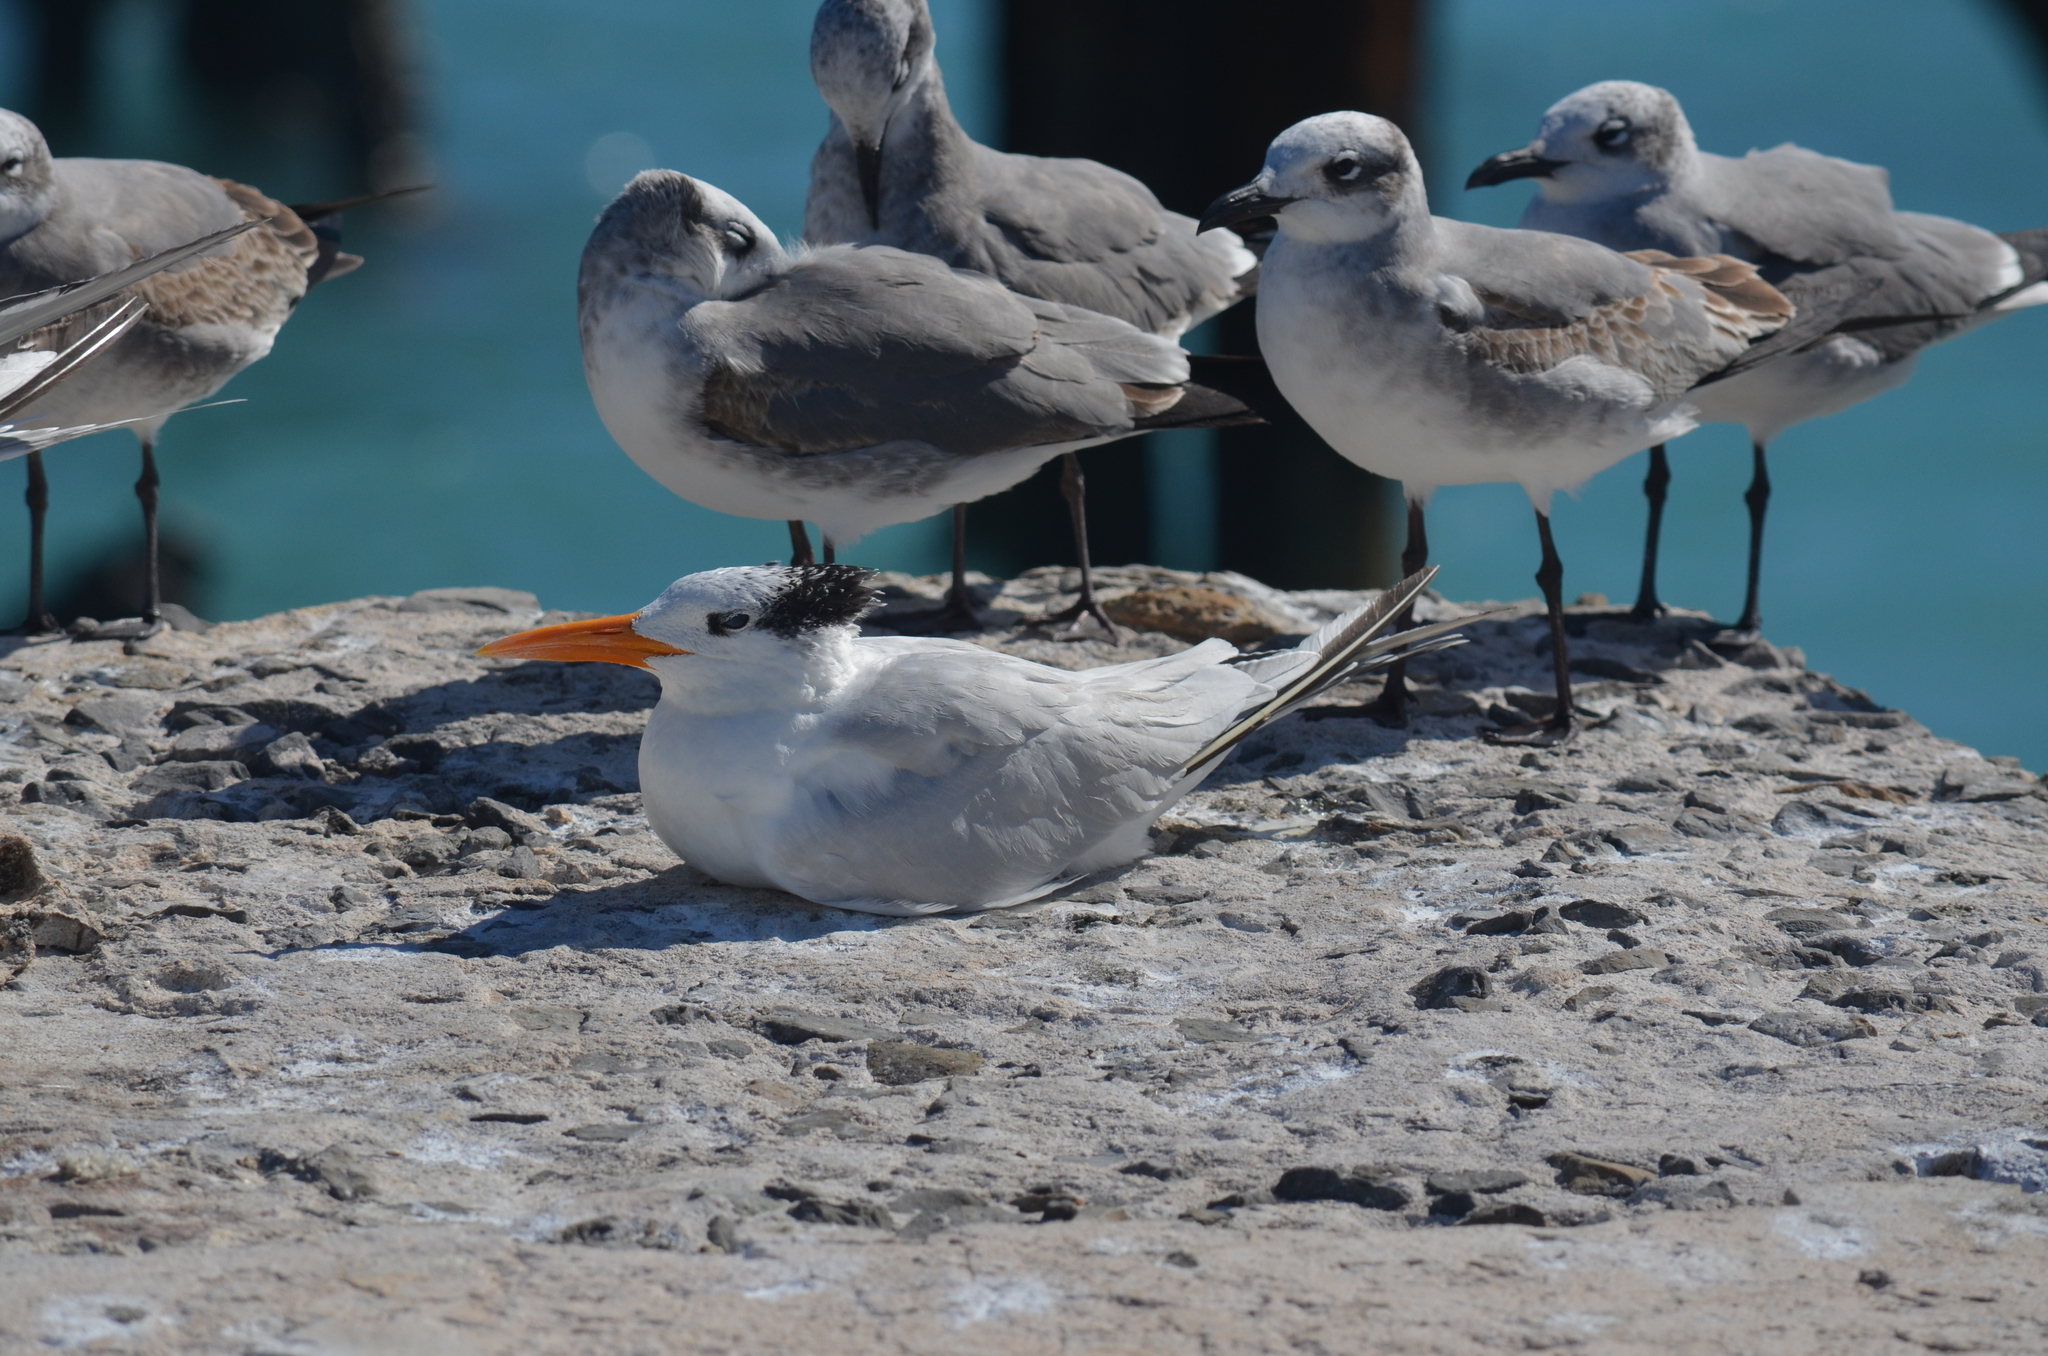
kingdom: Animalia
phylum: Chordata
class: Aves
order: Charadriiformes
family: Laridae
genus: Thalasseus
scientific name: Thalasseus maximus
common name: Royal tern
